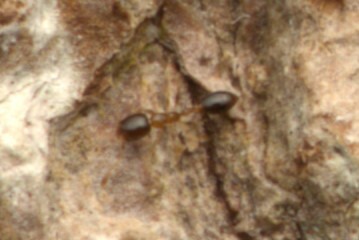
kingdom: Animalia
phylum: Arthropoda
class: Insecta
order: Hymenoptera
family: Formicidae
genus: Monomorium
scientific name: Monomorium floricola
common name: Bicolored trailing ant
